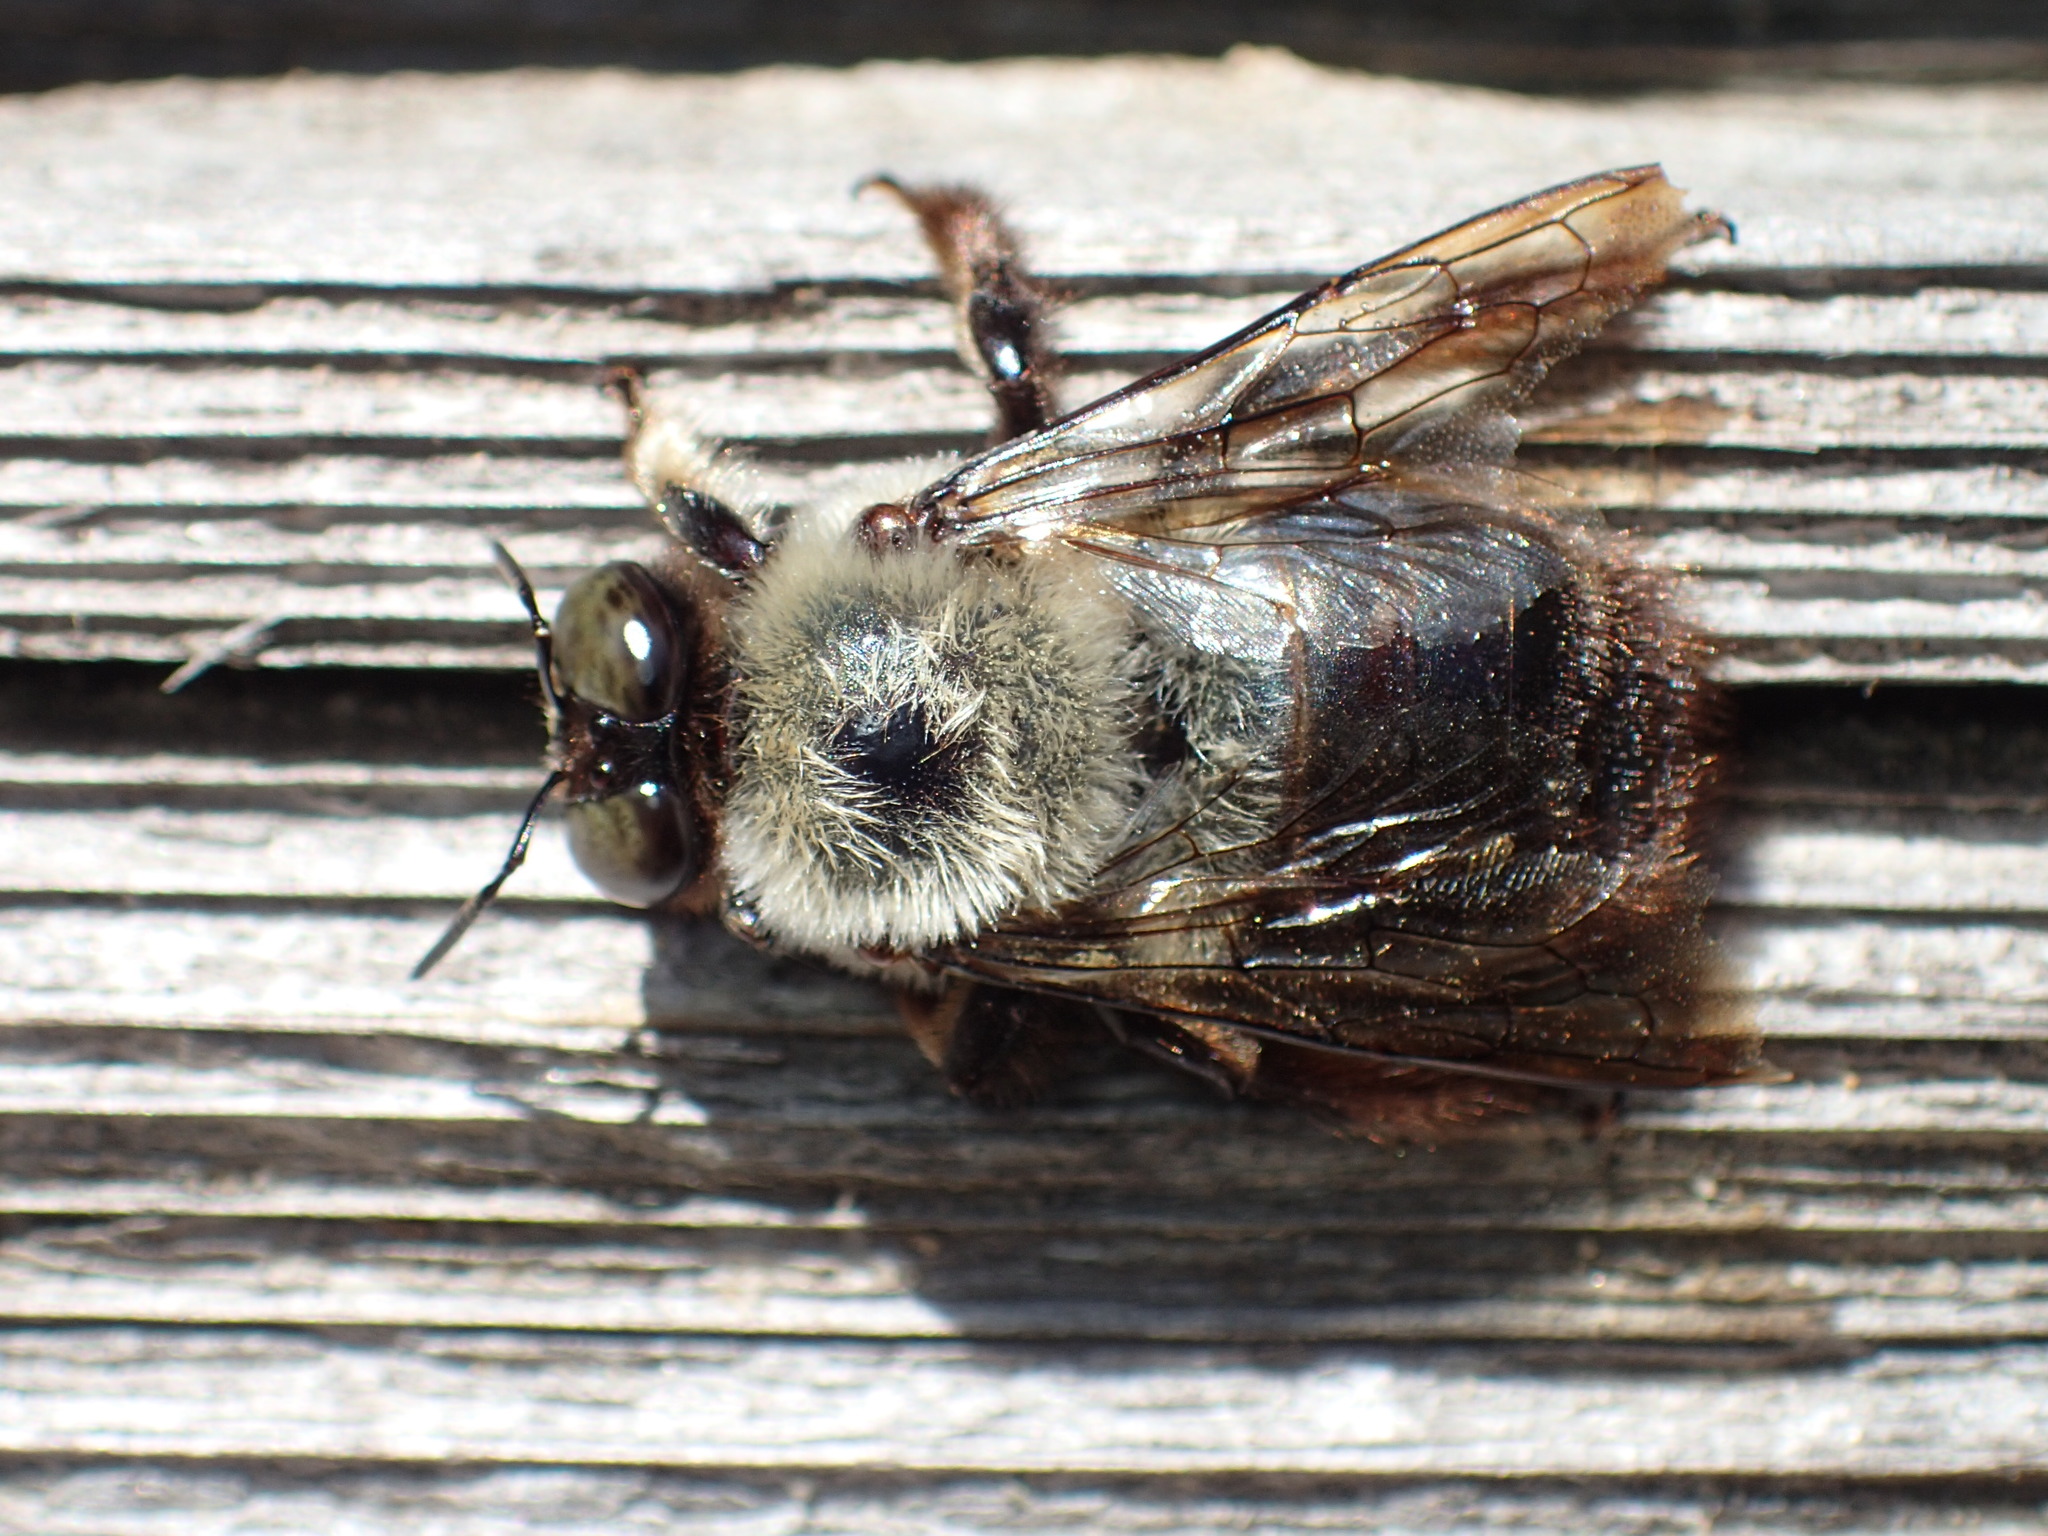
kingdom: Animalia
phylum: Arthropoda
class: Insecta
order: Hymenoptera
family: Apidae
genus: Xylocopa
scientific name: Xylocopa virginica
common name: Carpenter bee
